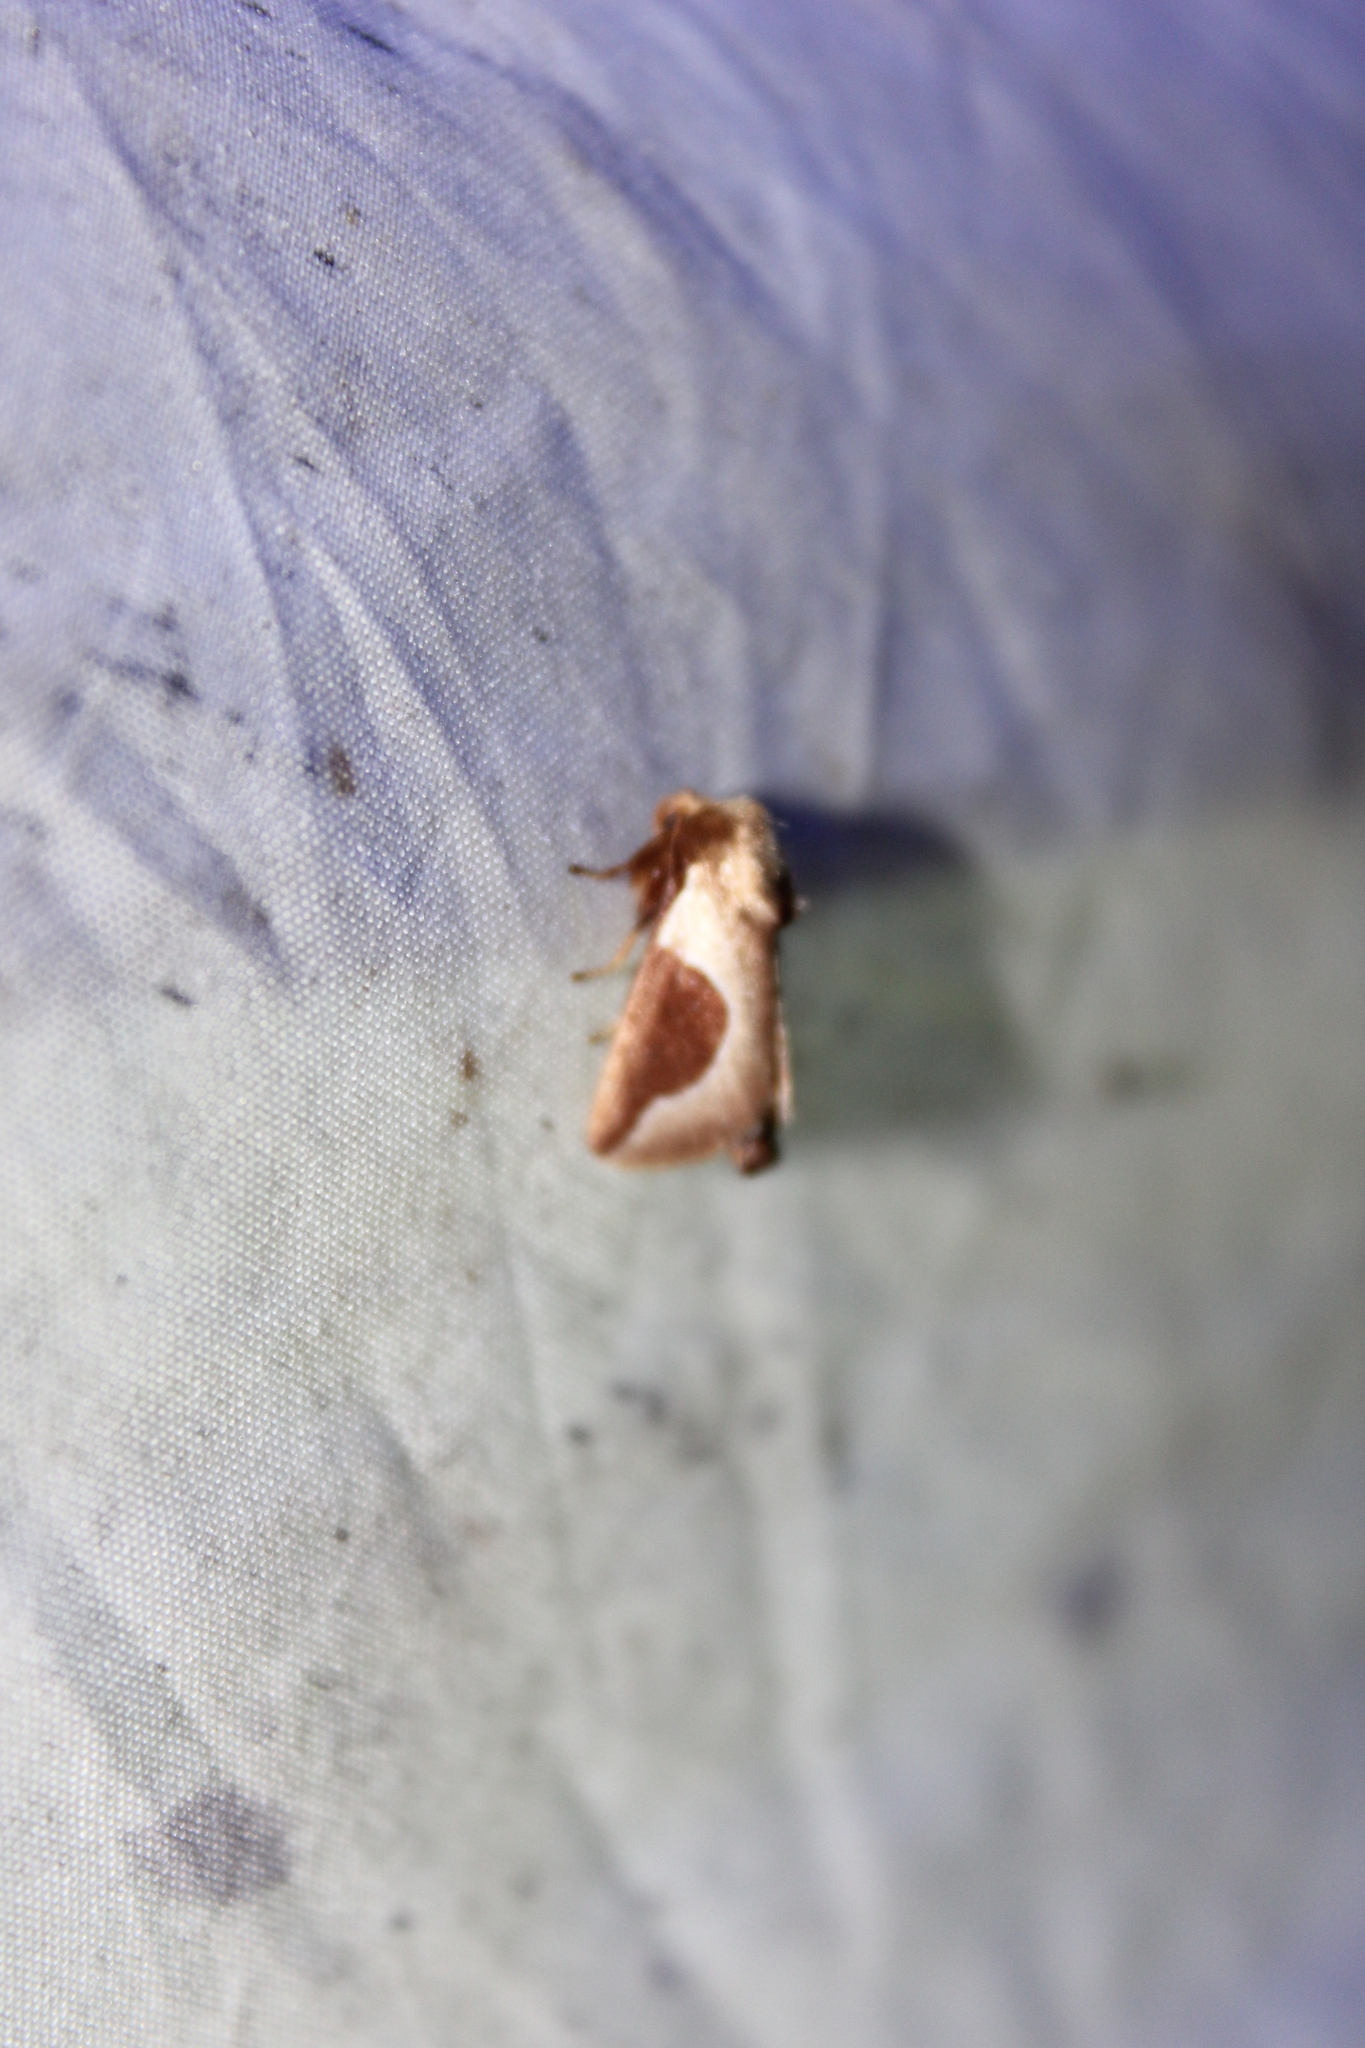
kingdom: Animalia
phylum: Arthropoda
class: Insecta
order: Lepidoptera
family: Limacodidae
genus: Prolimacodes
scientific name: Prolimacodes badia
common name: Skiff moth
